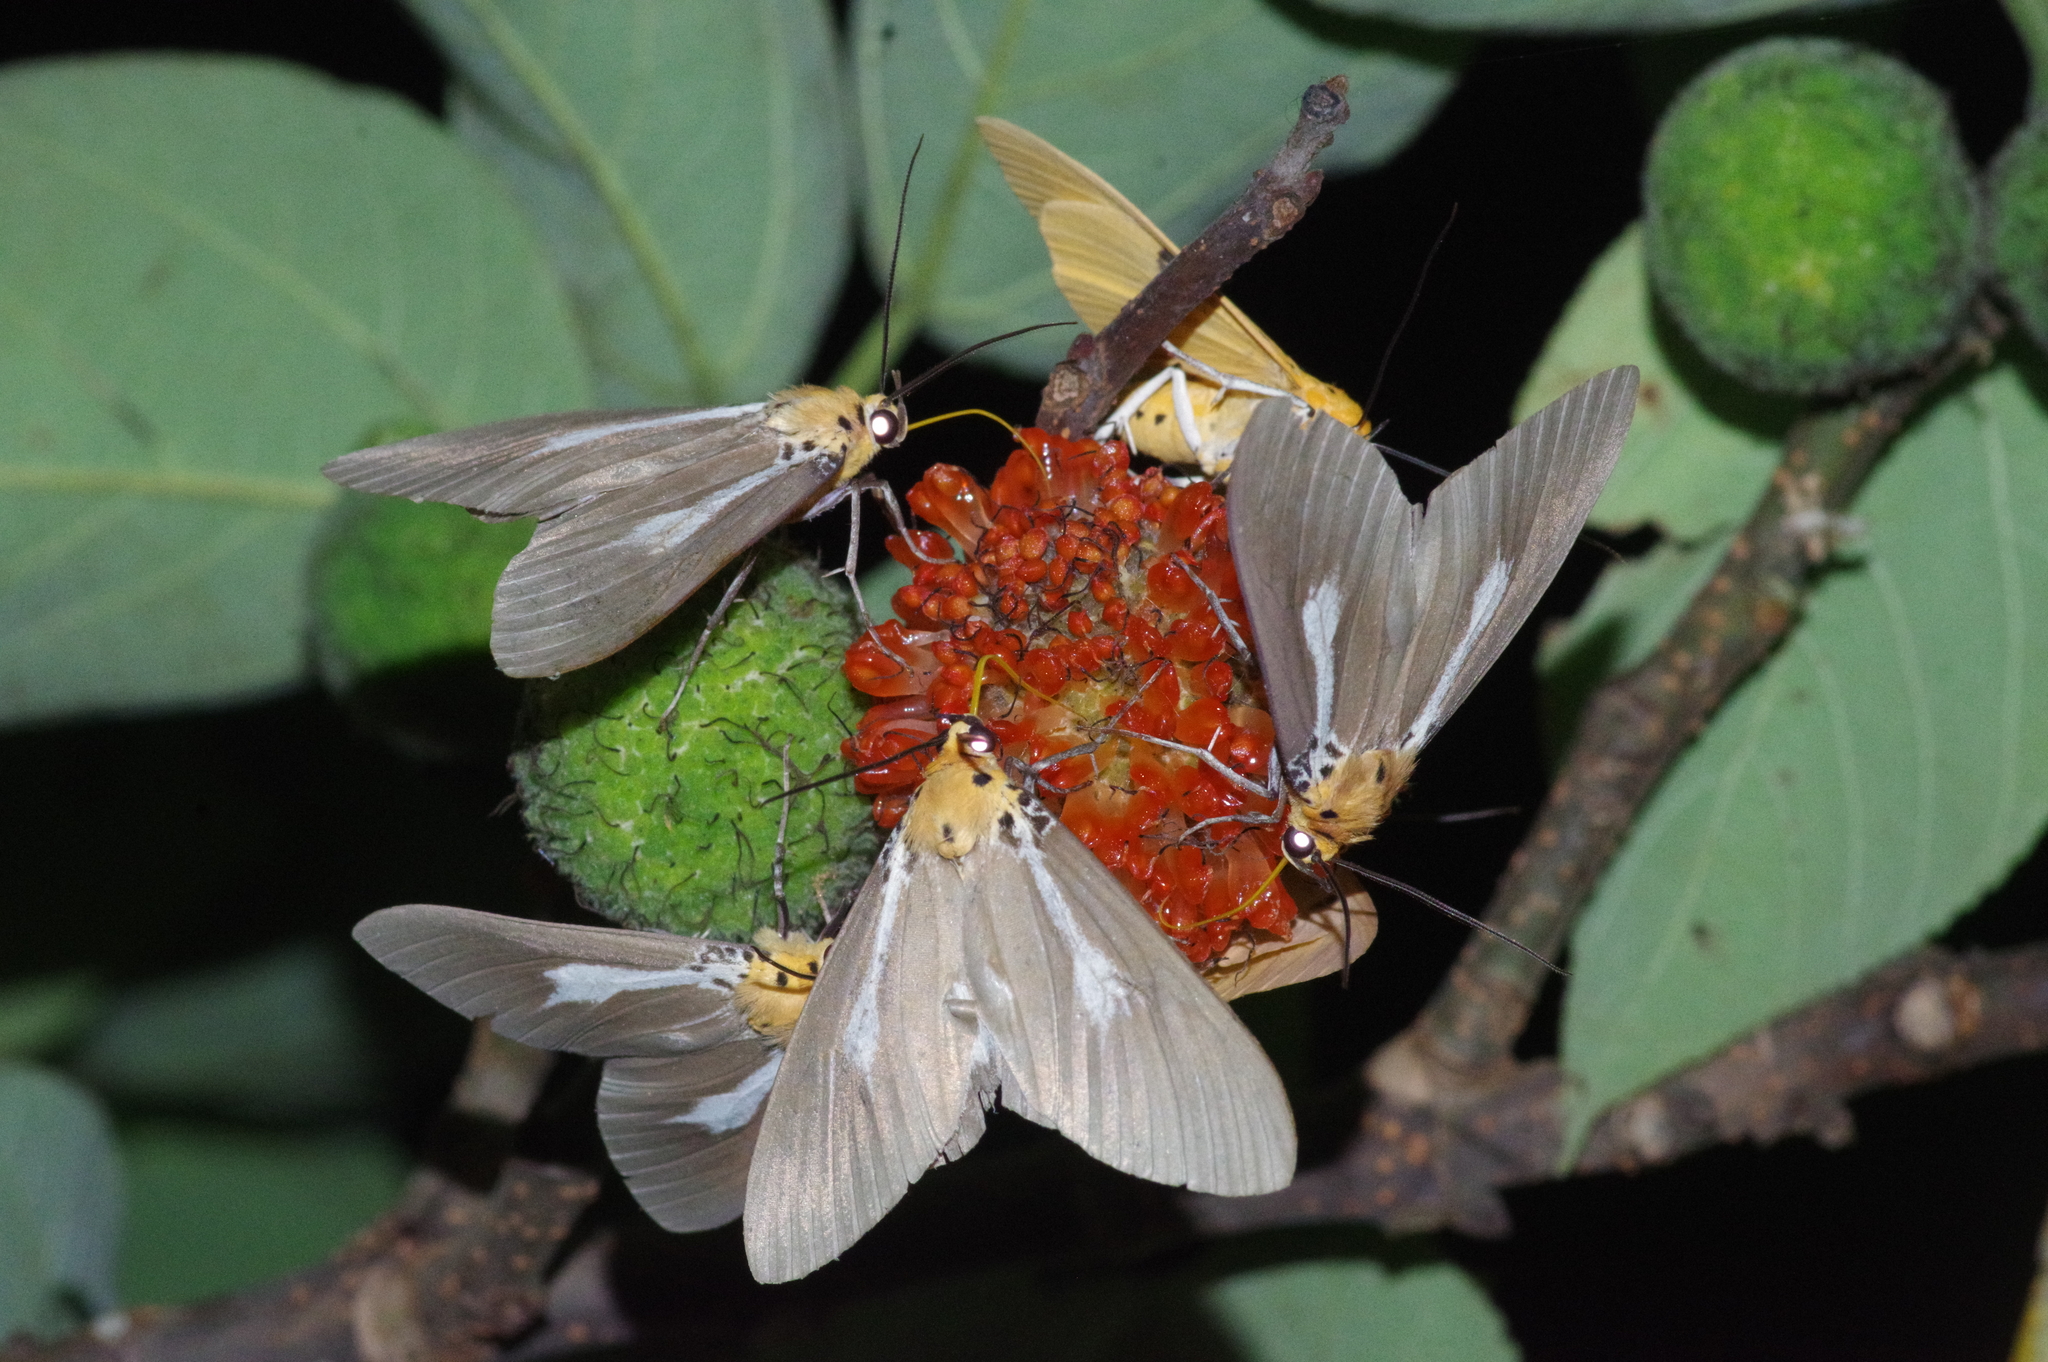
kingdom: Animalia
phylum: Arthropoda
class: Insecta
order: Lepidoptera
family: Erebidae
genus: Asota
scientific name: Asota egens
